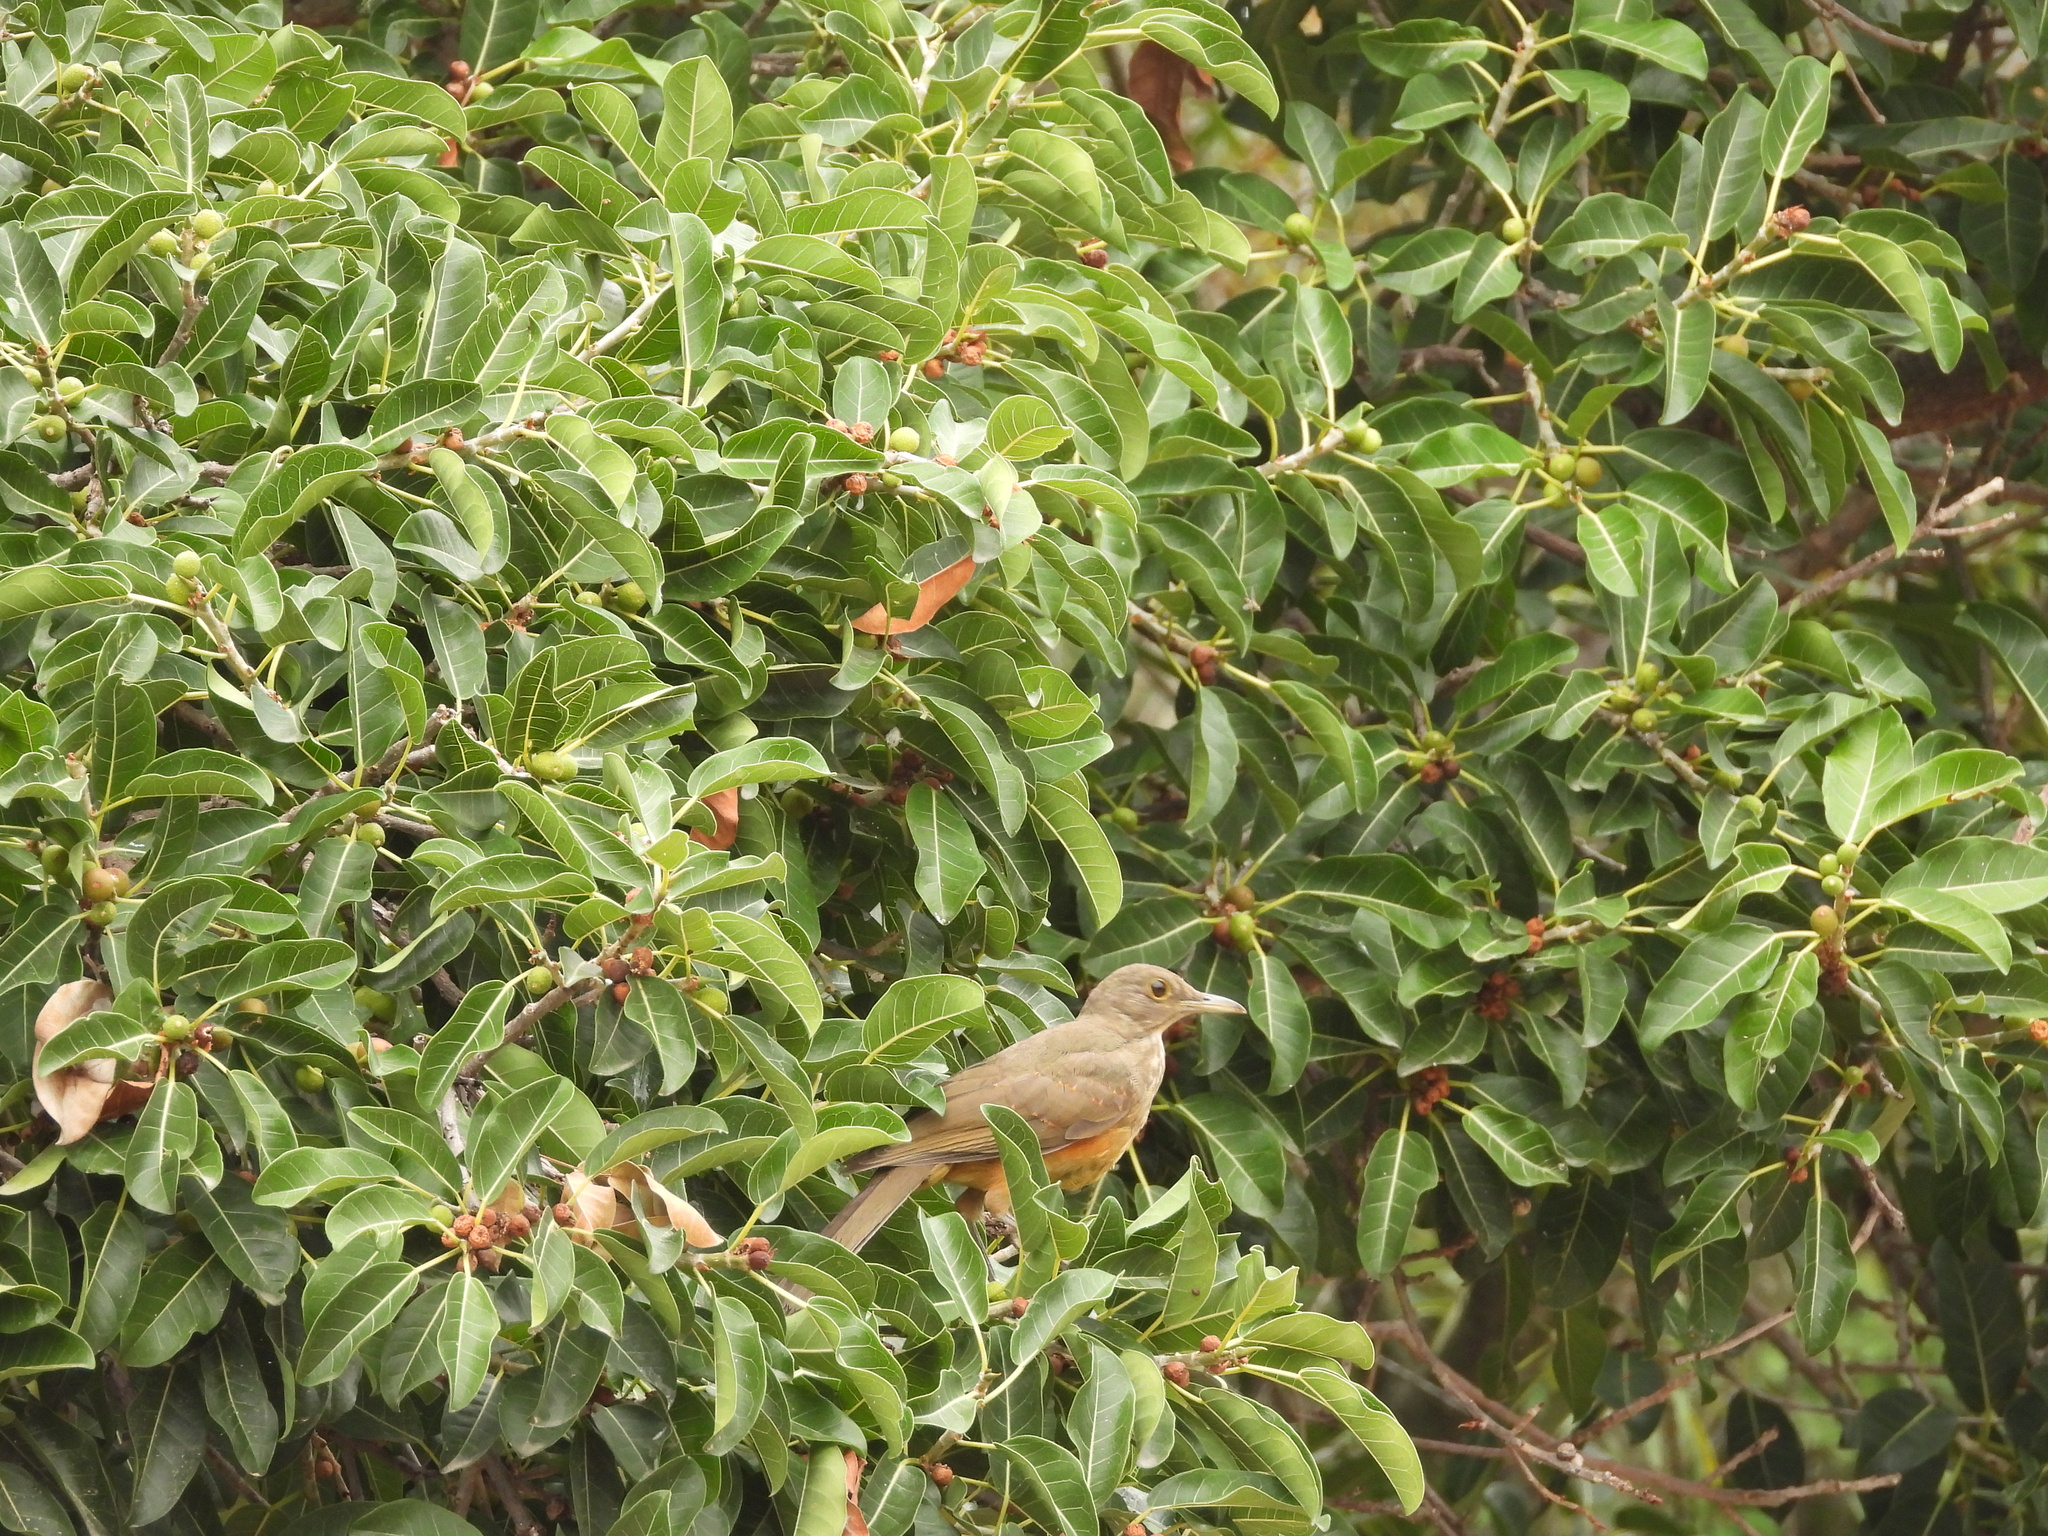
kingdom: Animalia
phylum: Chordata
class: Aves
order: Passeriformes
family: Turdidae
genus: Turdus
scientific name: Turdus rufiventris
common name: Rufous-bellied thrush
